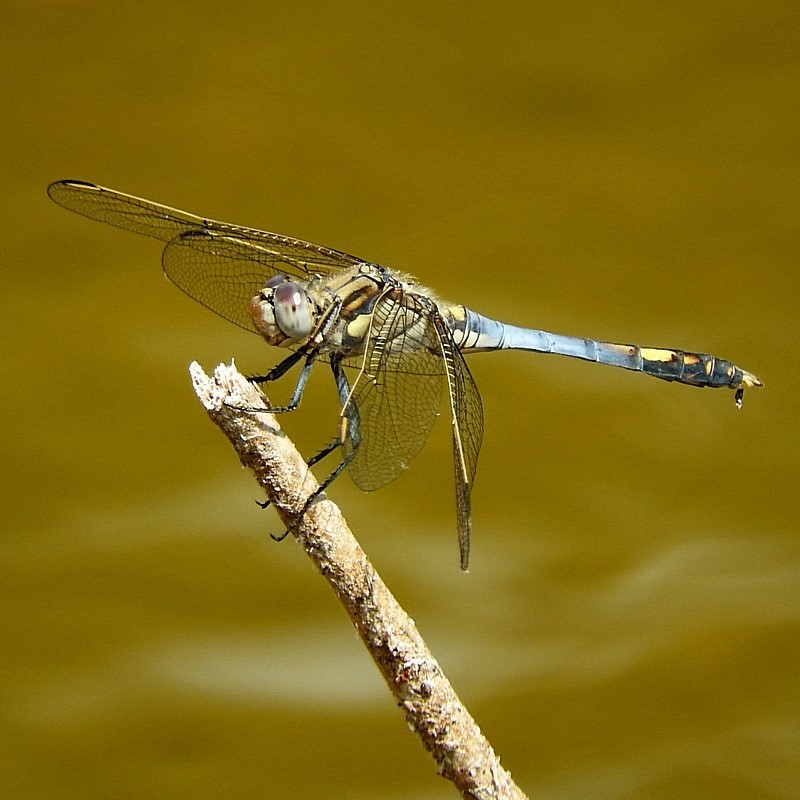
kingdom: Animalia
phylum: Arthropoda
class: Insecta
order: Odonata
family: Libellulidae
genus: Orthetrum
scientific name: Orthetrum caledonicum
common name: Blue skimmer
